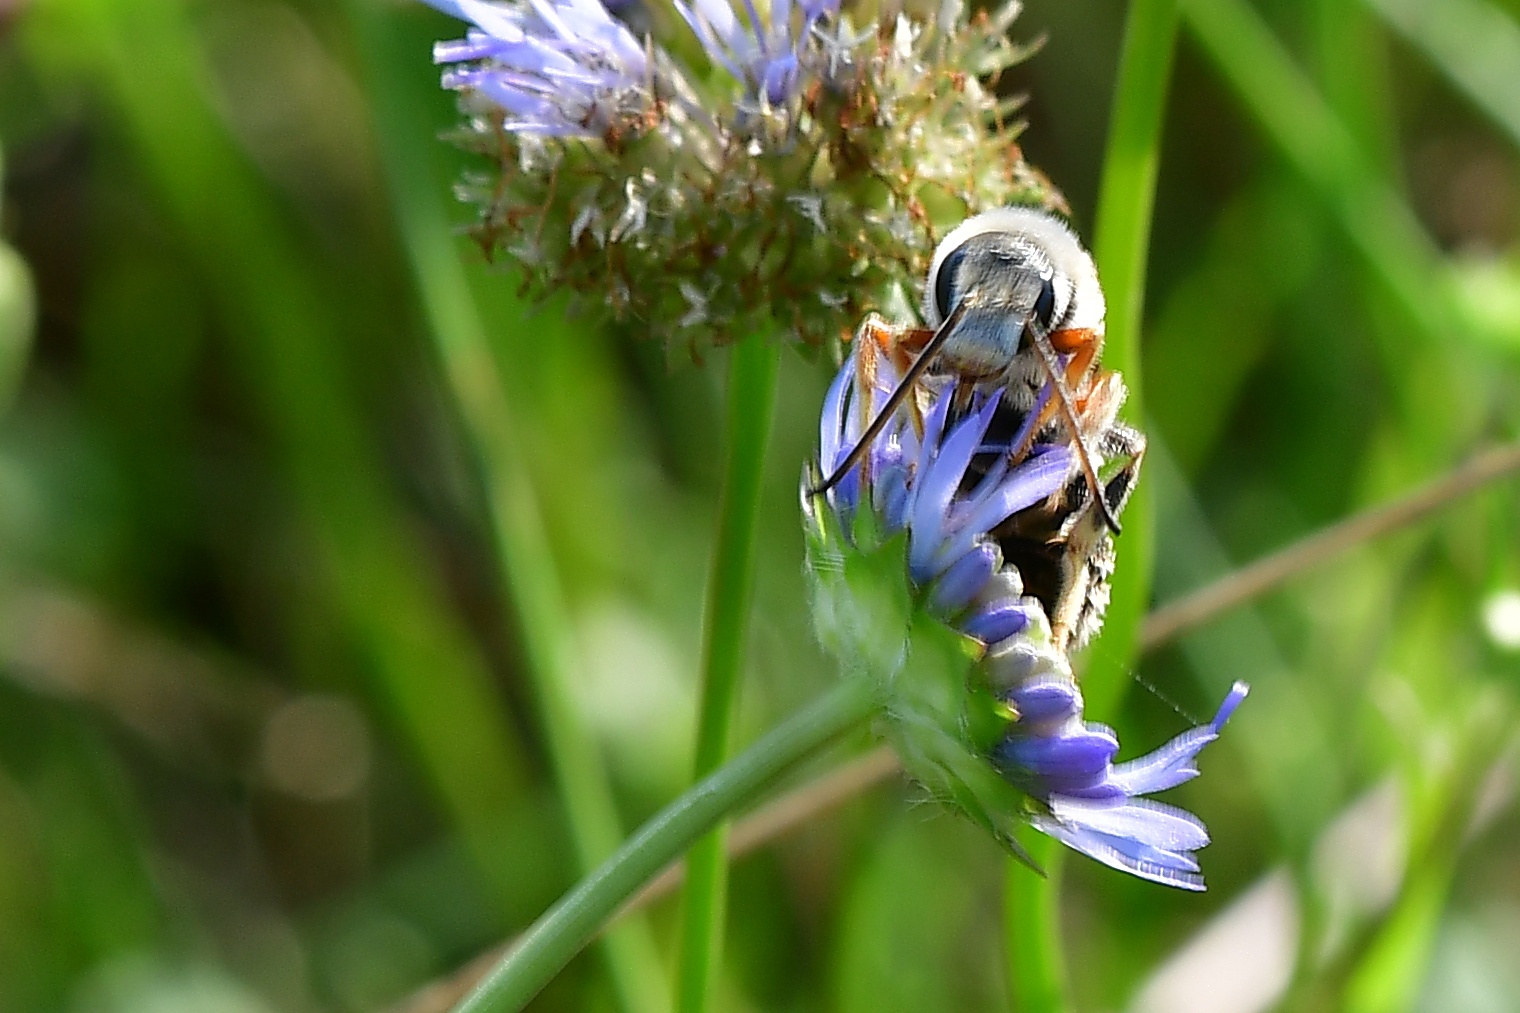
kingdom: Animalia
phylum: Arthropoda
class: Insecta
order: Hymenoptera
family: Halictidae
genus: Halictus
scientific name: Halictus quadricinctus
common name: Giant furrow bee
